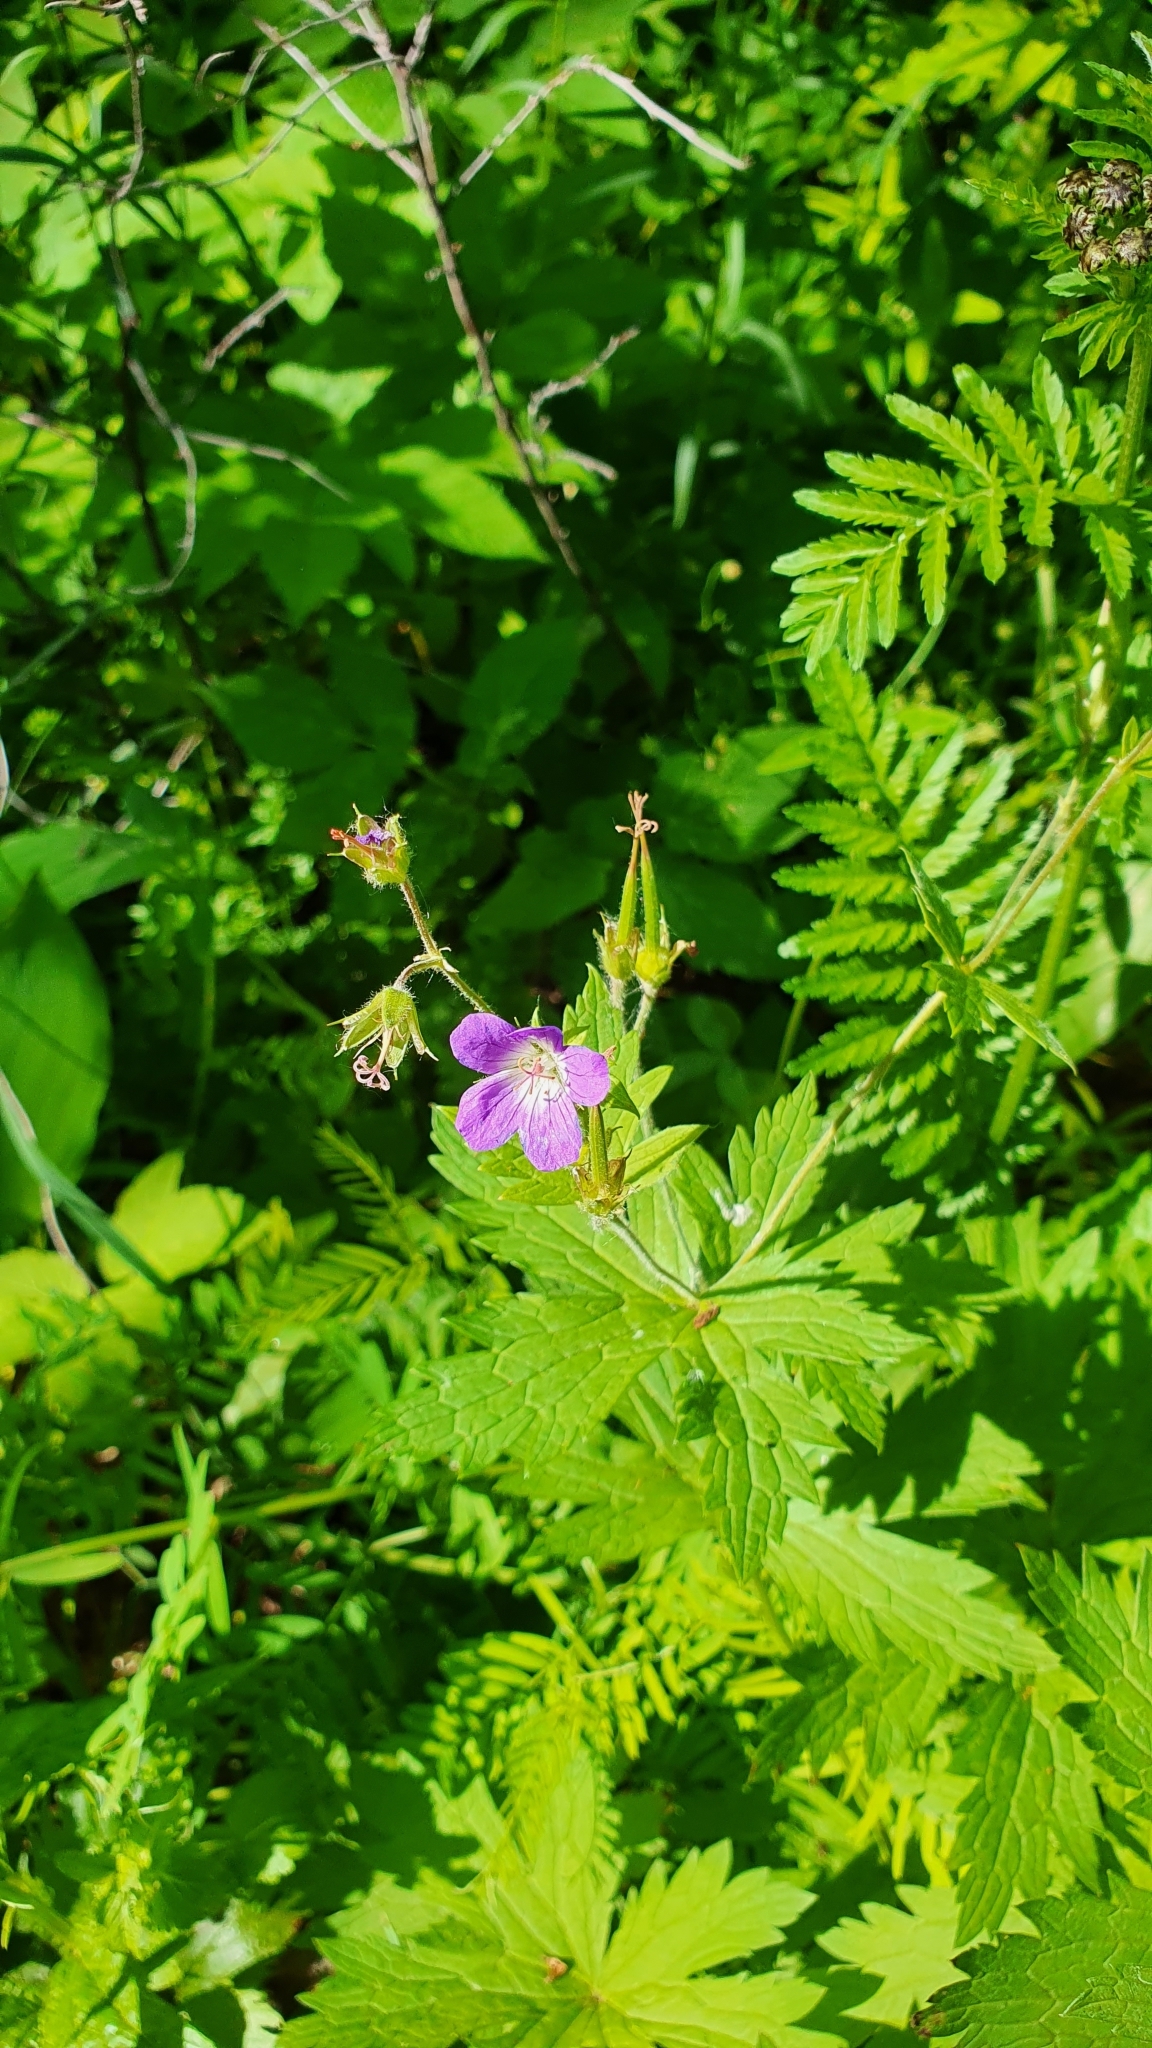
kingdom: Plantae
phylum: Tracheophyta
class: Magnoliopsida
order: Geraniales
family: Geraniaceae
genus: Geranium
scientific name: Geranium sylvaticum
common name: Wood crane's-bill
